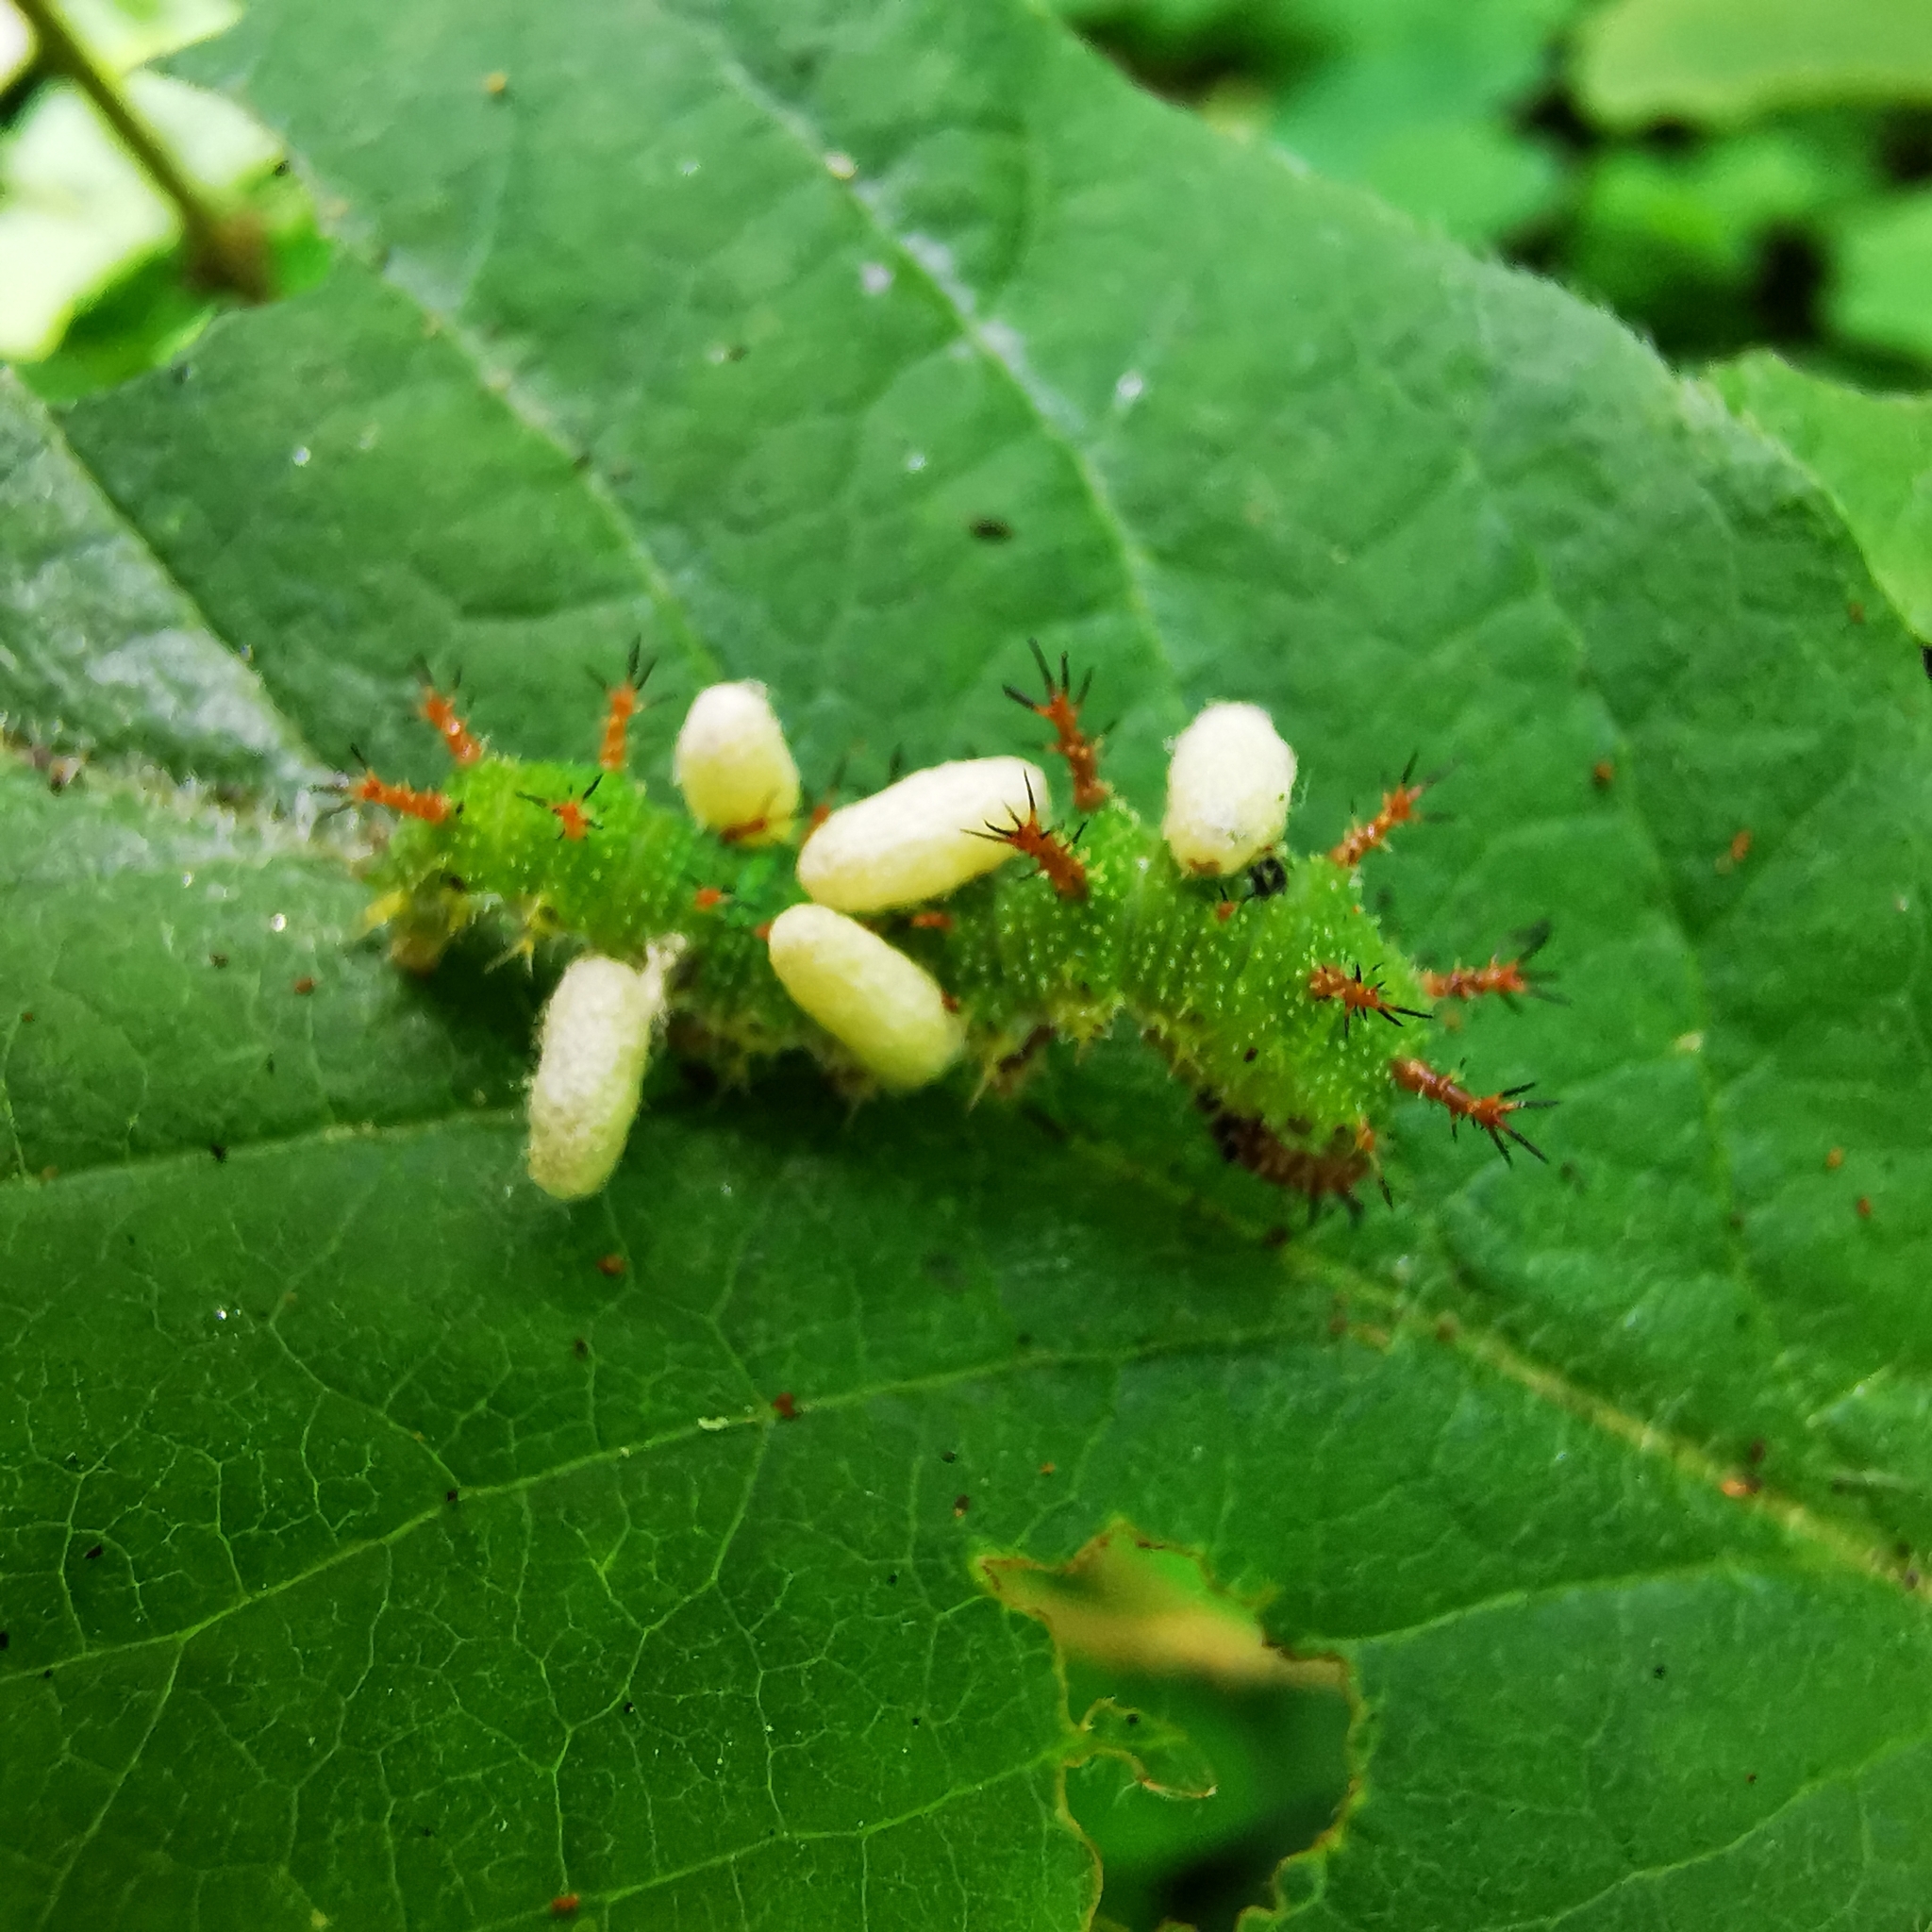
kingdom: Animalia
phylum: Arthropoda
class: Insecta
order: Lepidoptera
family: Nymphalidae
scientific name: Nymphalidae
